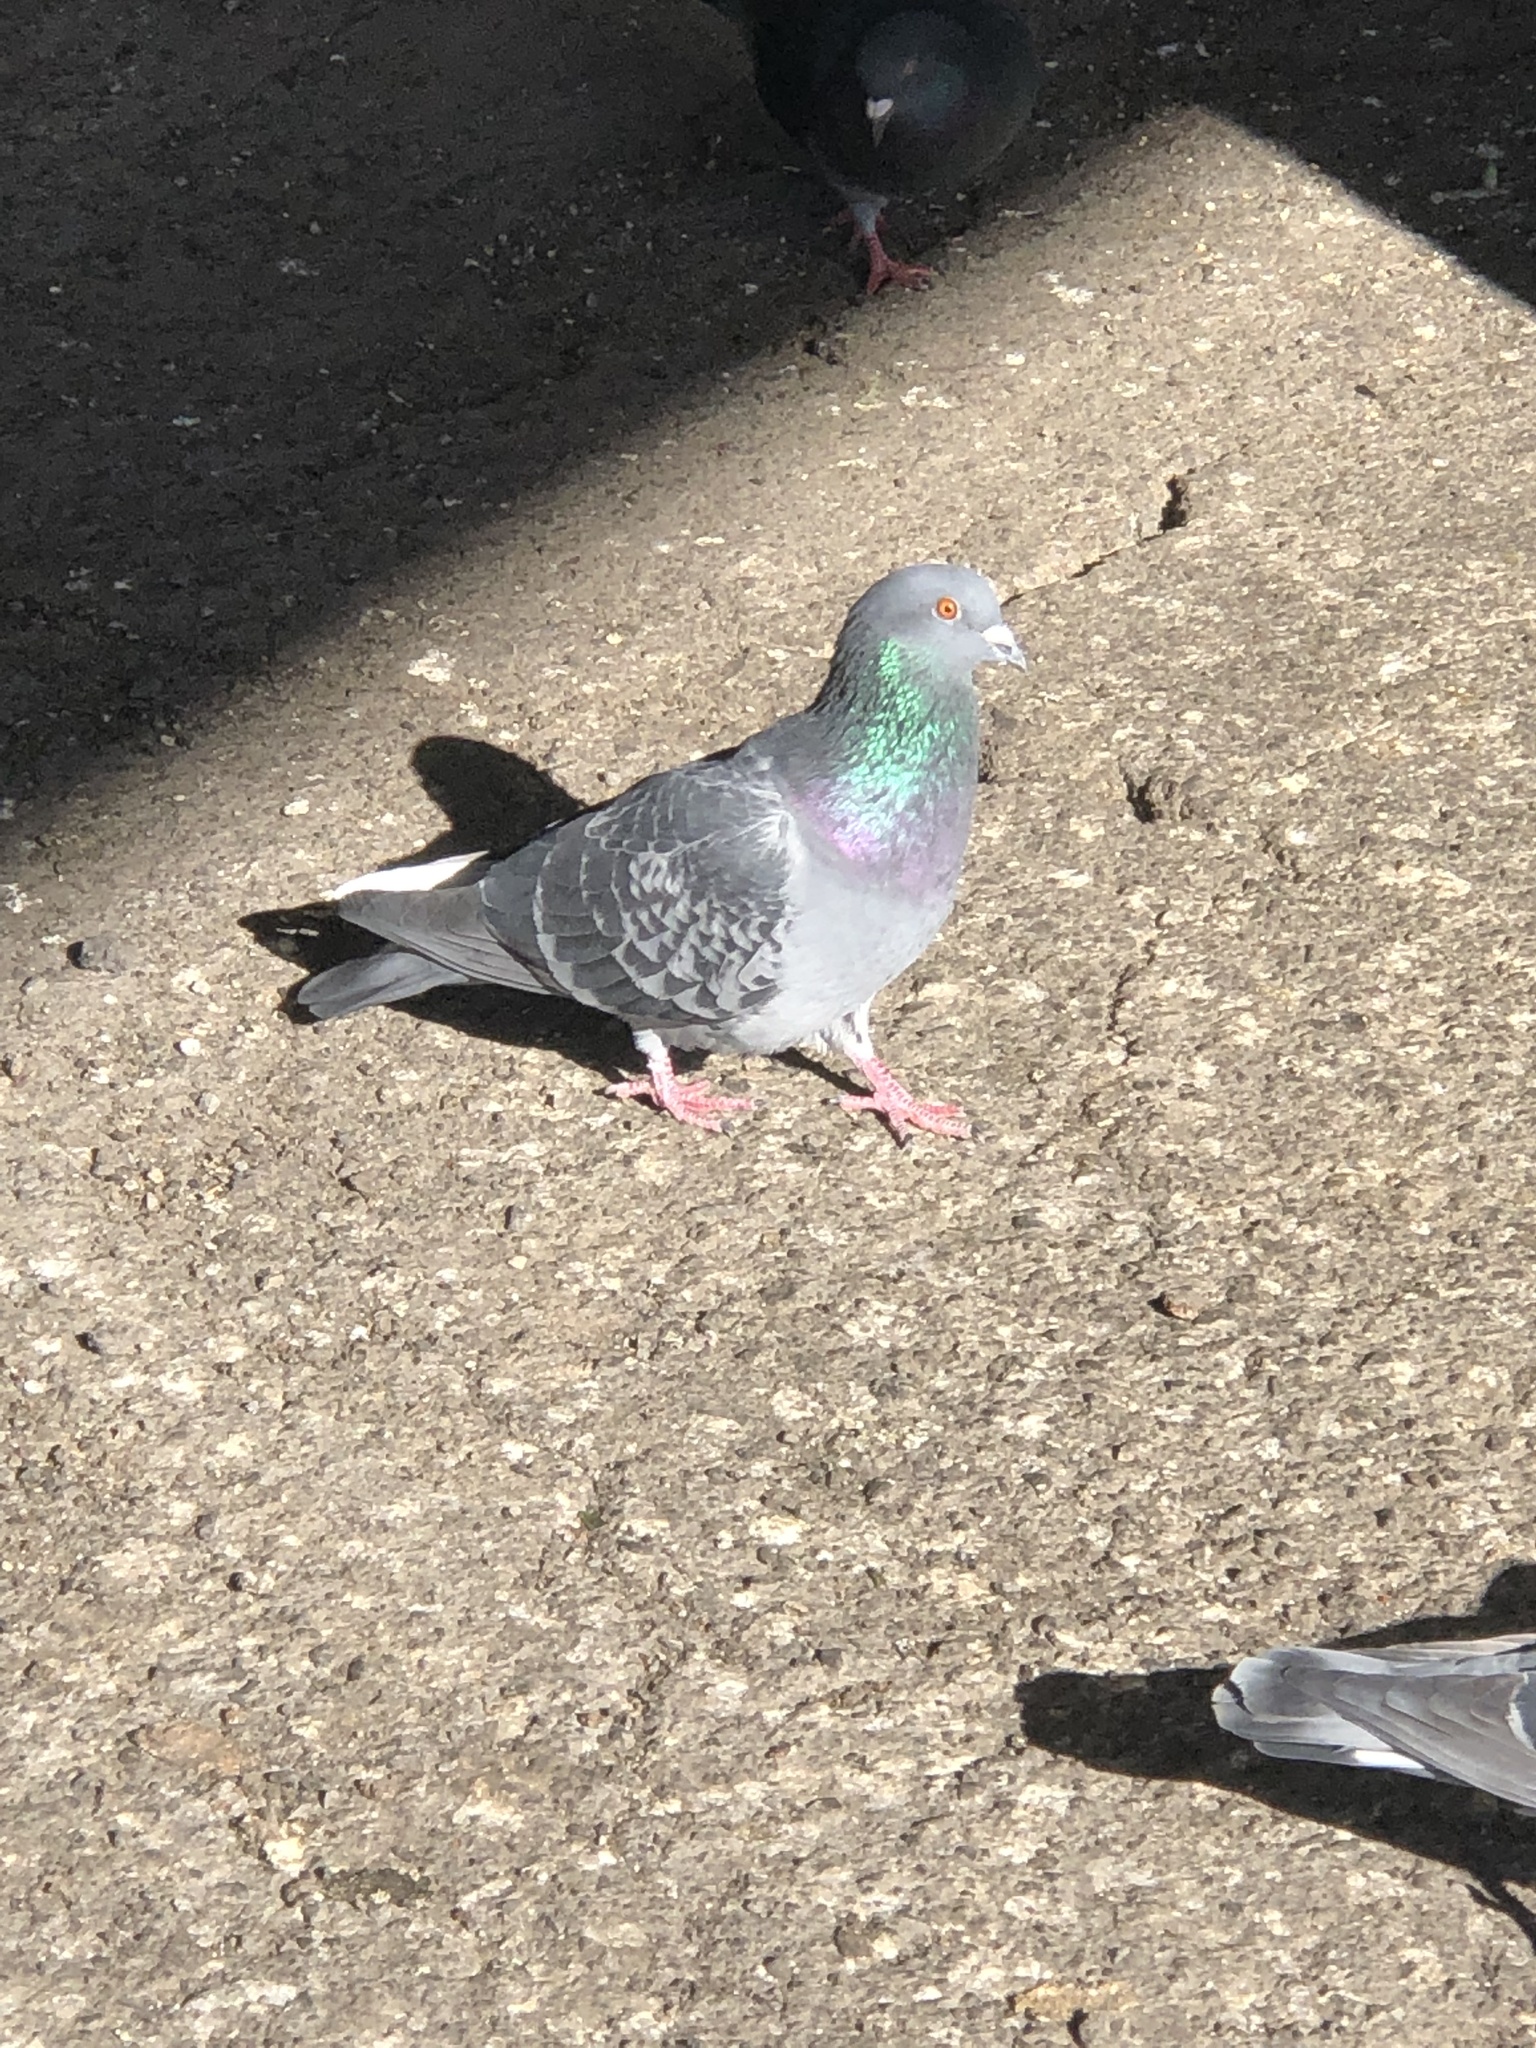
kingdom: Animalia
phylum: Chordata
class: Aves
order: Columbiformes
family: Columbidae
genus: Columba
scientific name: Columba livia
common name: Rock pigeon
